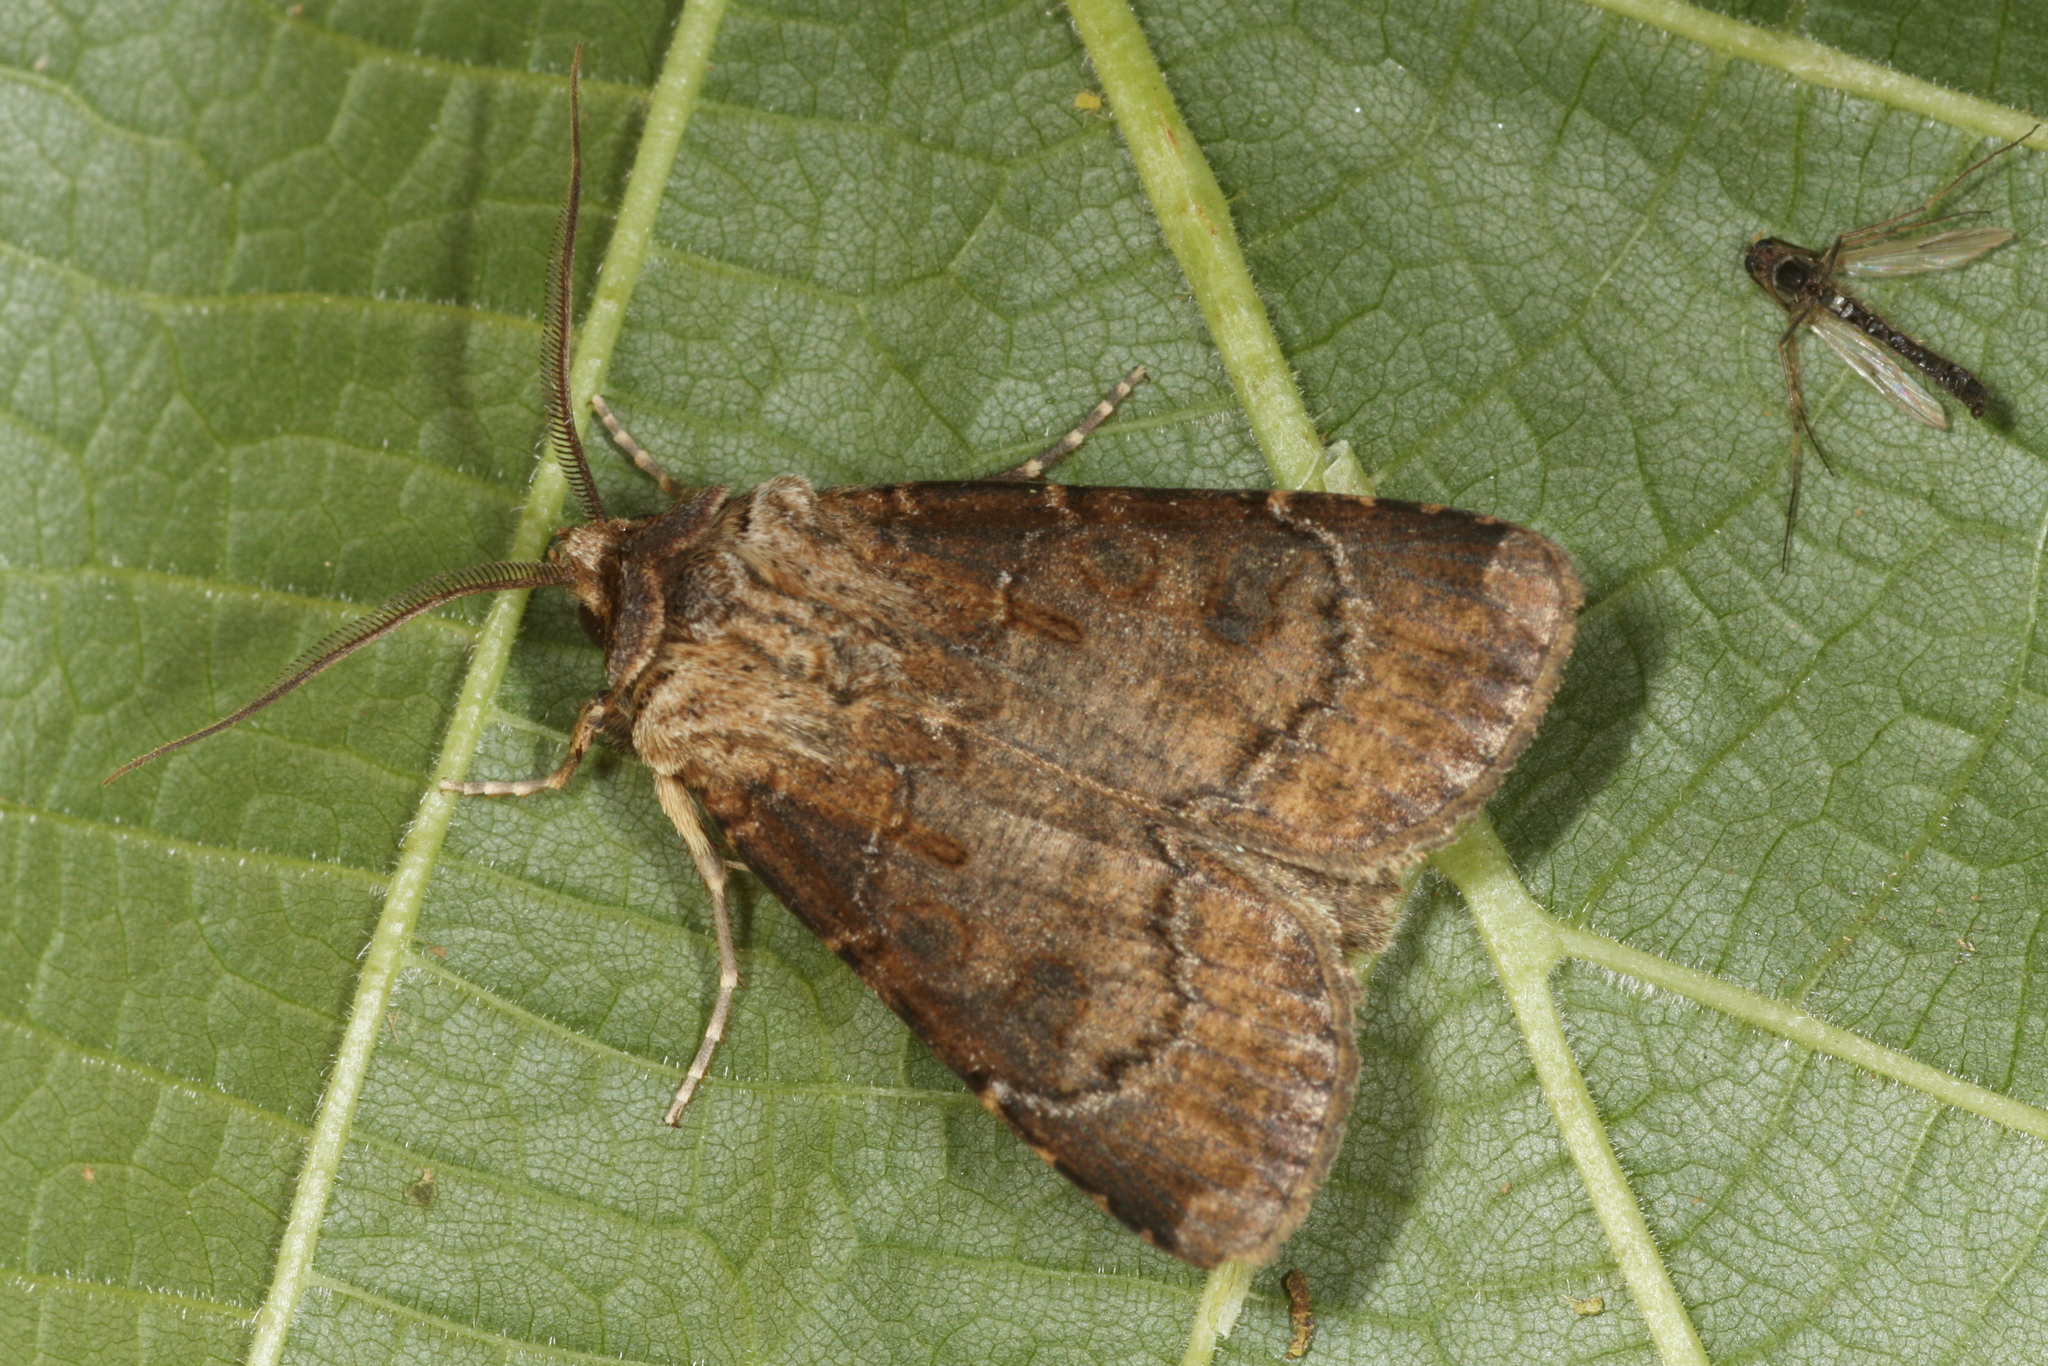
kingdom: Animalia
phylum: Arthropoda
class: Insecta
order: Lepidoptera
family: Noctuidae
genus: Agrotis
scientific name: Agrotis clavis
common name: Heart and club
